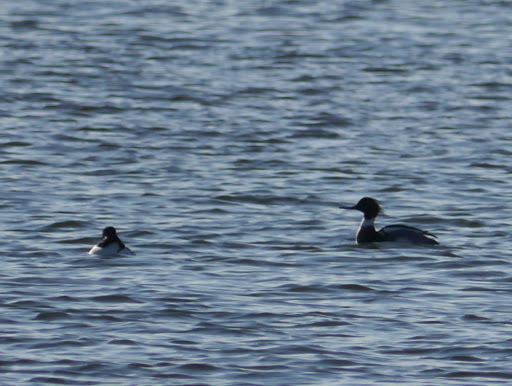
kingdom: Animalia
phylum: Chordata
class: Aves
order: Anseriformes
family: Anatidae
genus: Mergus
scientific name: Mergus serrator
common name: Red-breasted merganser
